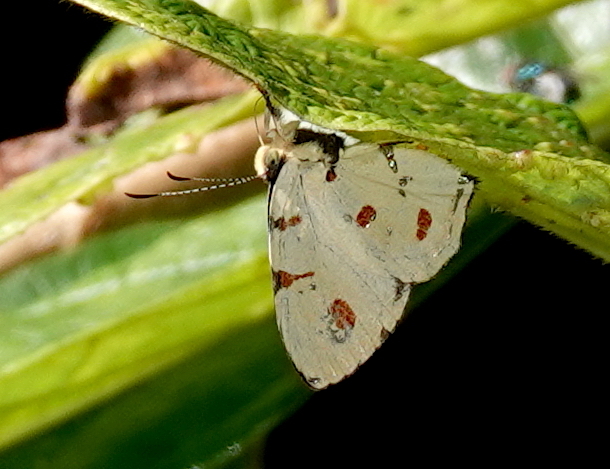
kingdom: Animalia
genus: Anteros
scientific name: Anteros cruentatus
